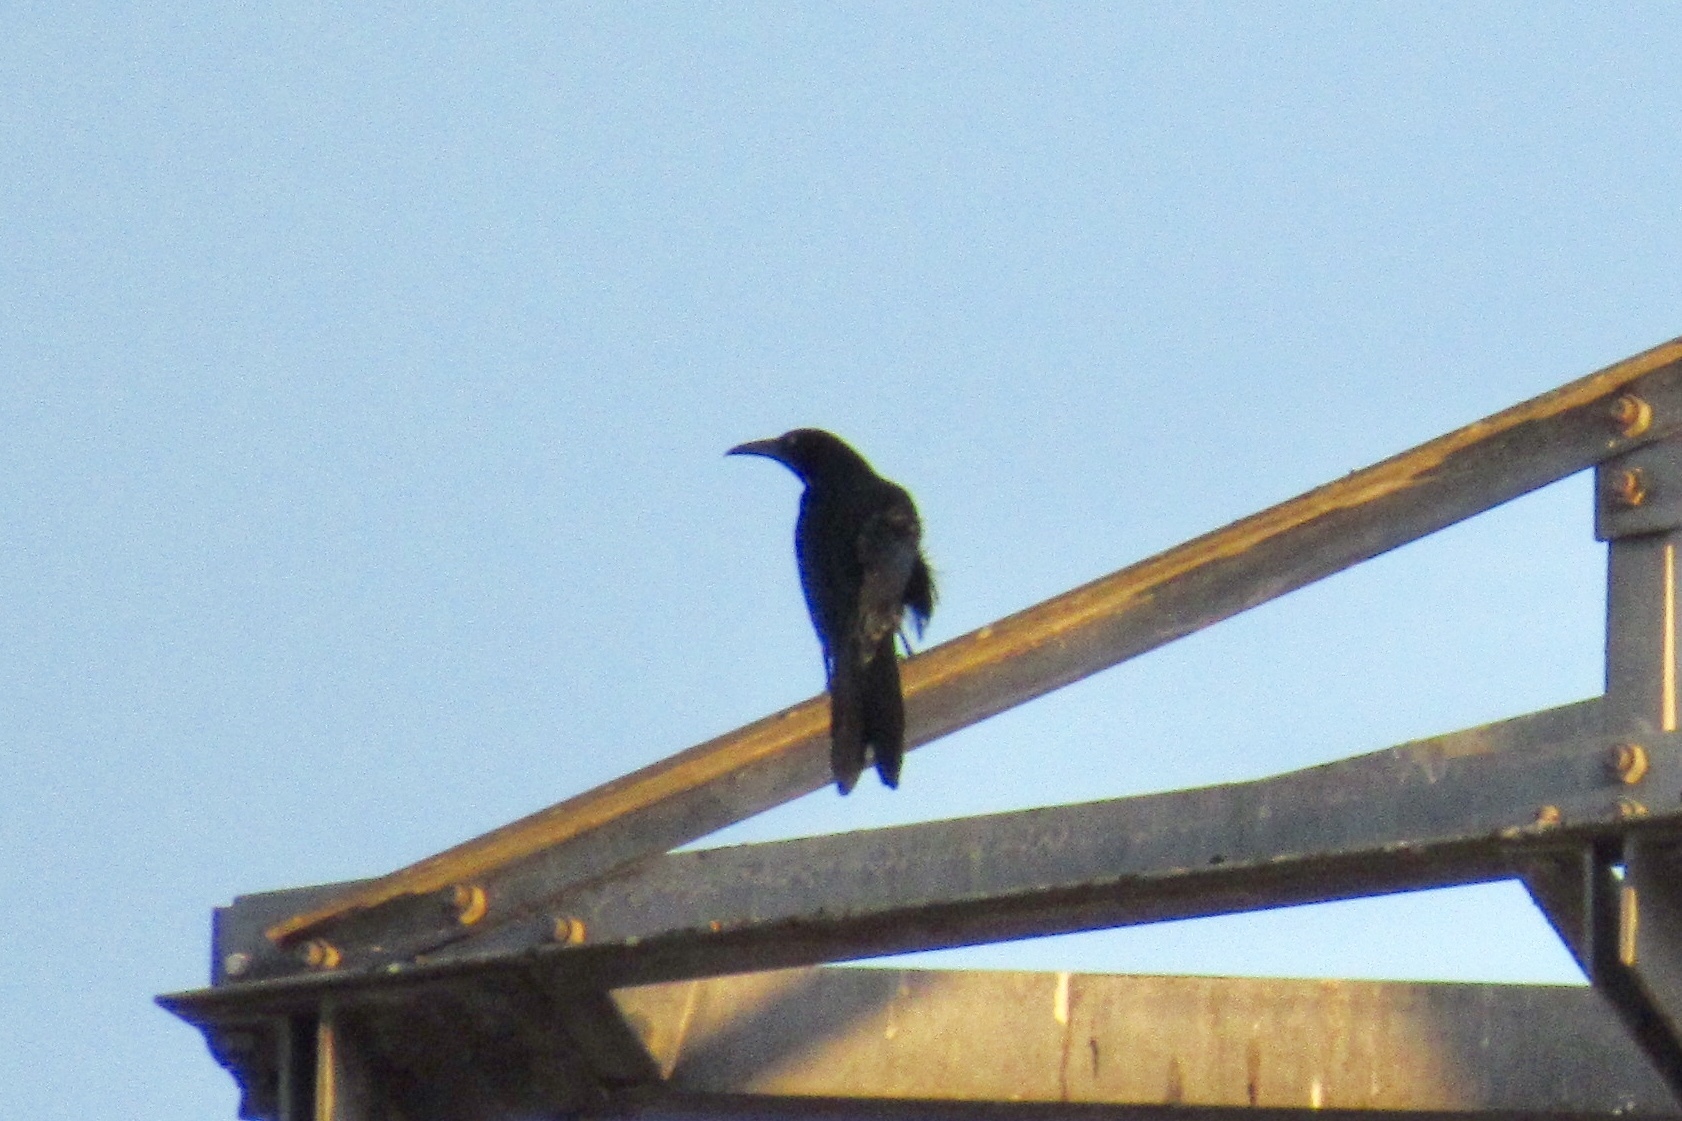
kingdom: Animalia
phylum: Chordata
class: Aves
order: Passeriformes
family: Icteridae
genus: Quiscalus
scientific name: Quiscalus mexicanus
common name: Great-tailed grackle
